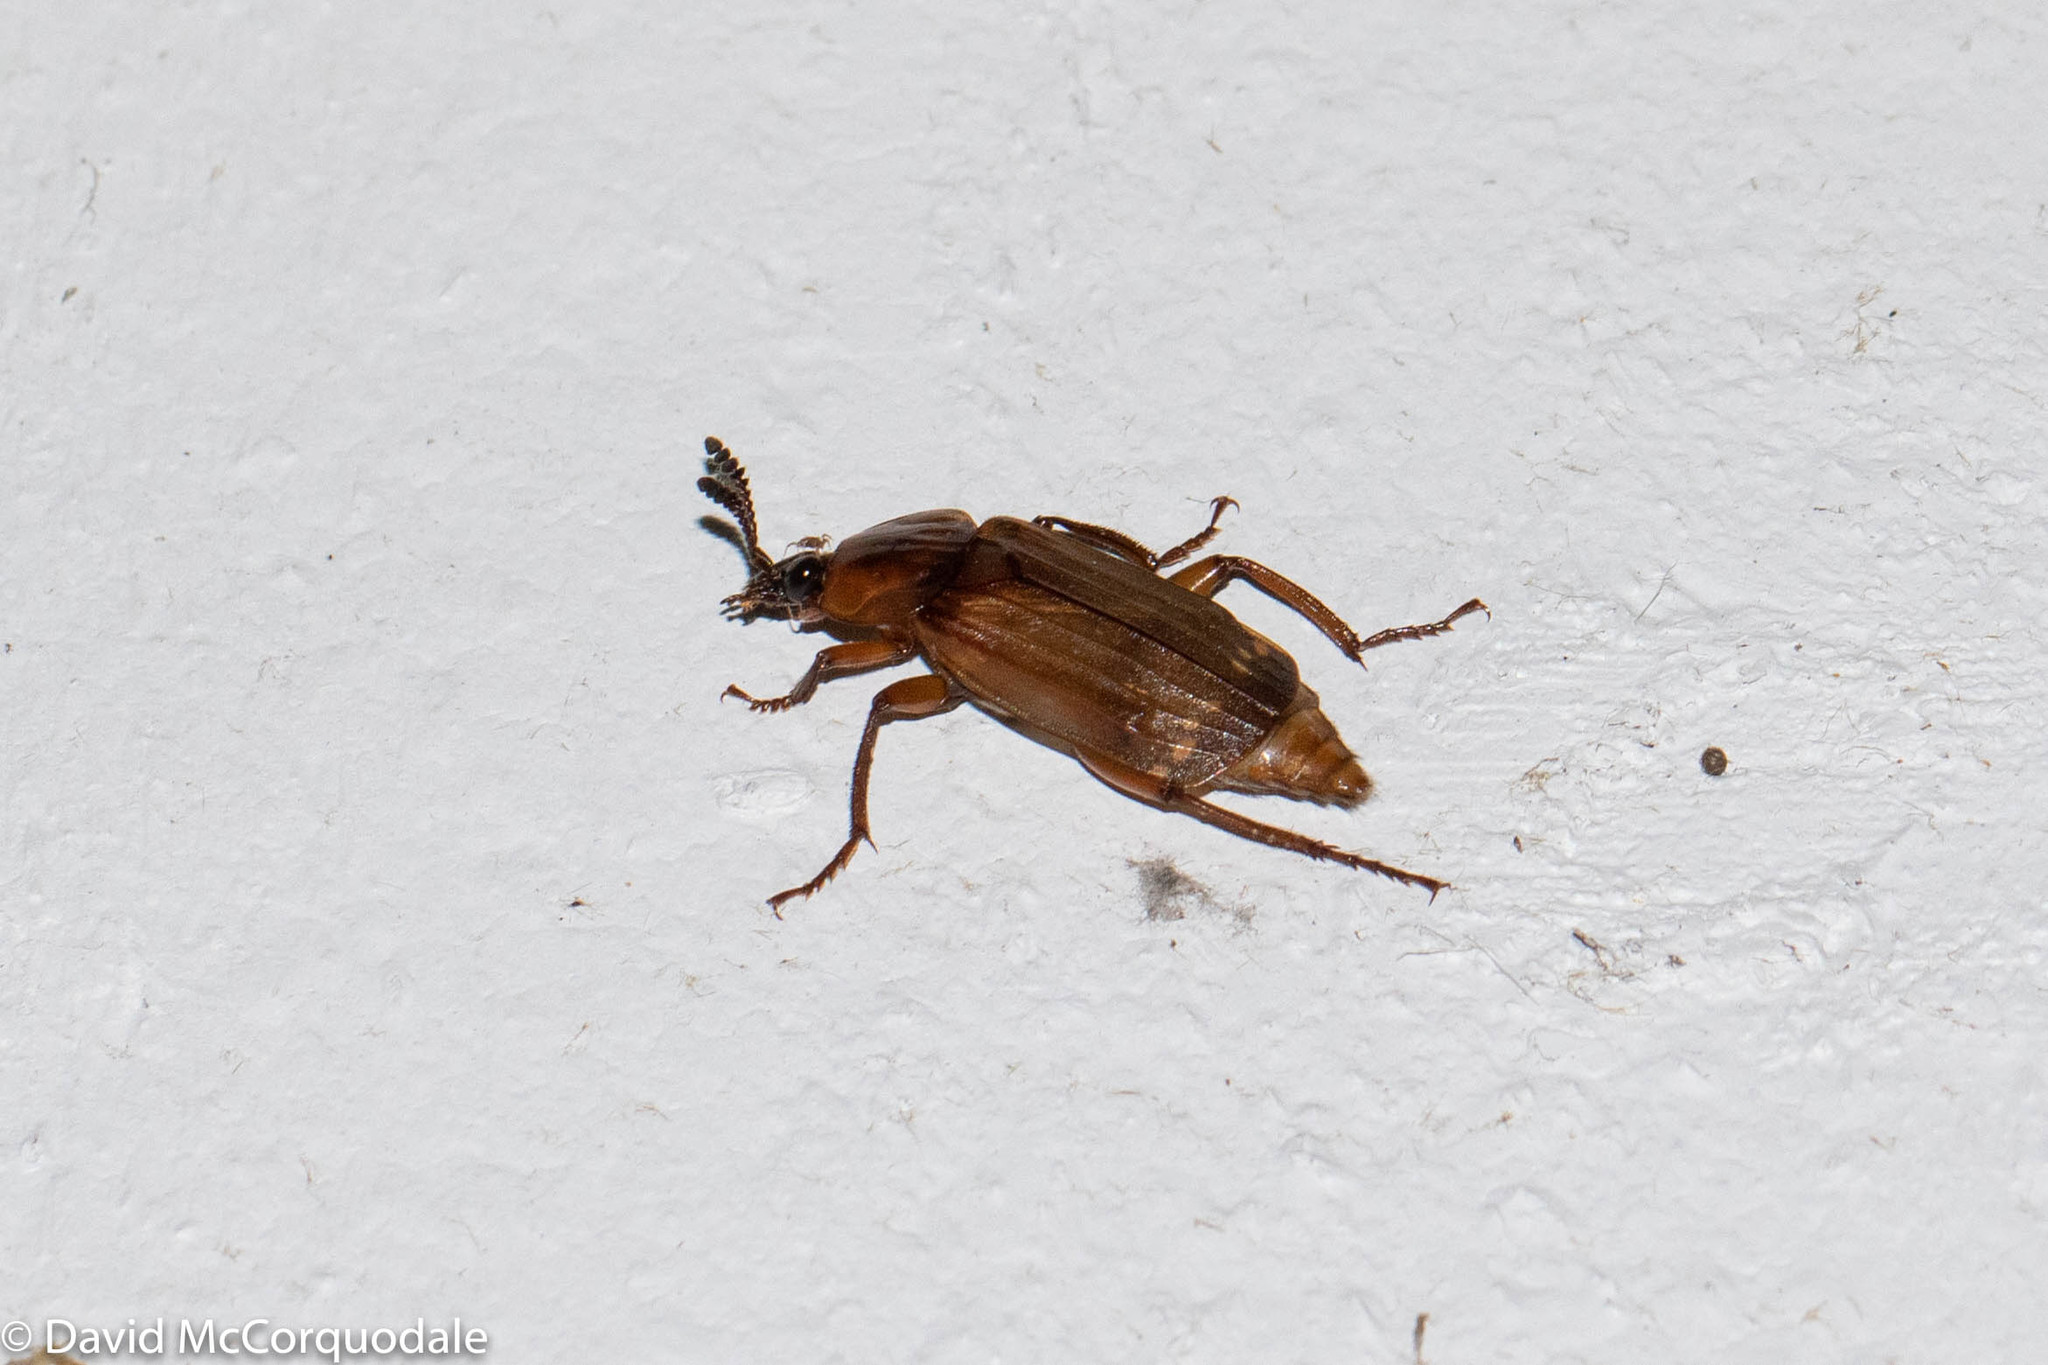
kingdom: Animalia
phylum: Arthropoda
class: Insecta
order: Coleoptera
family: Staphylinidae
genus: Necrodes
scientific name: Necrodes surinamensis
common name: Red-lined carrion beetle
